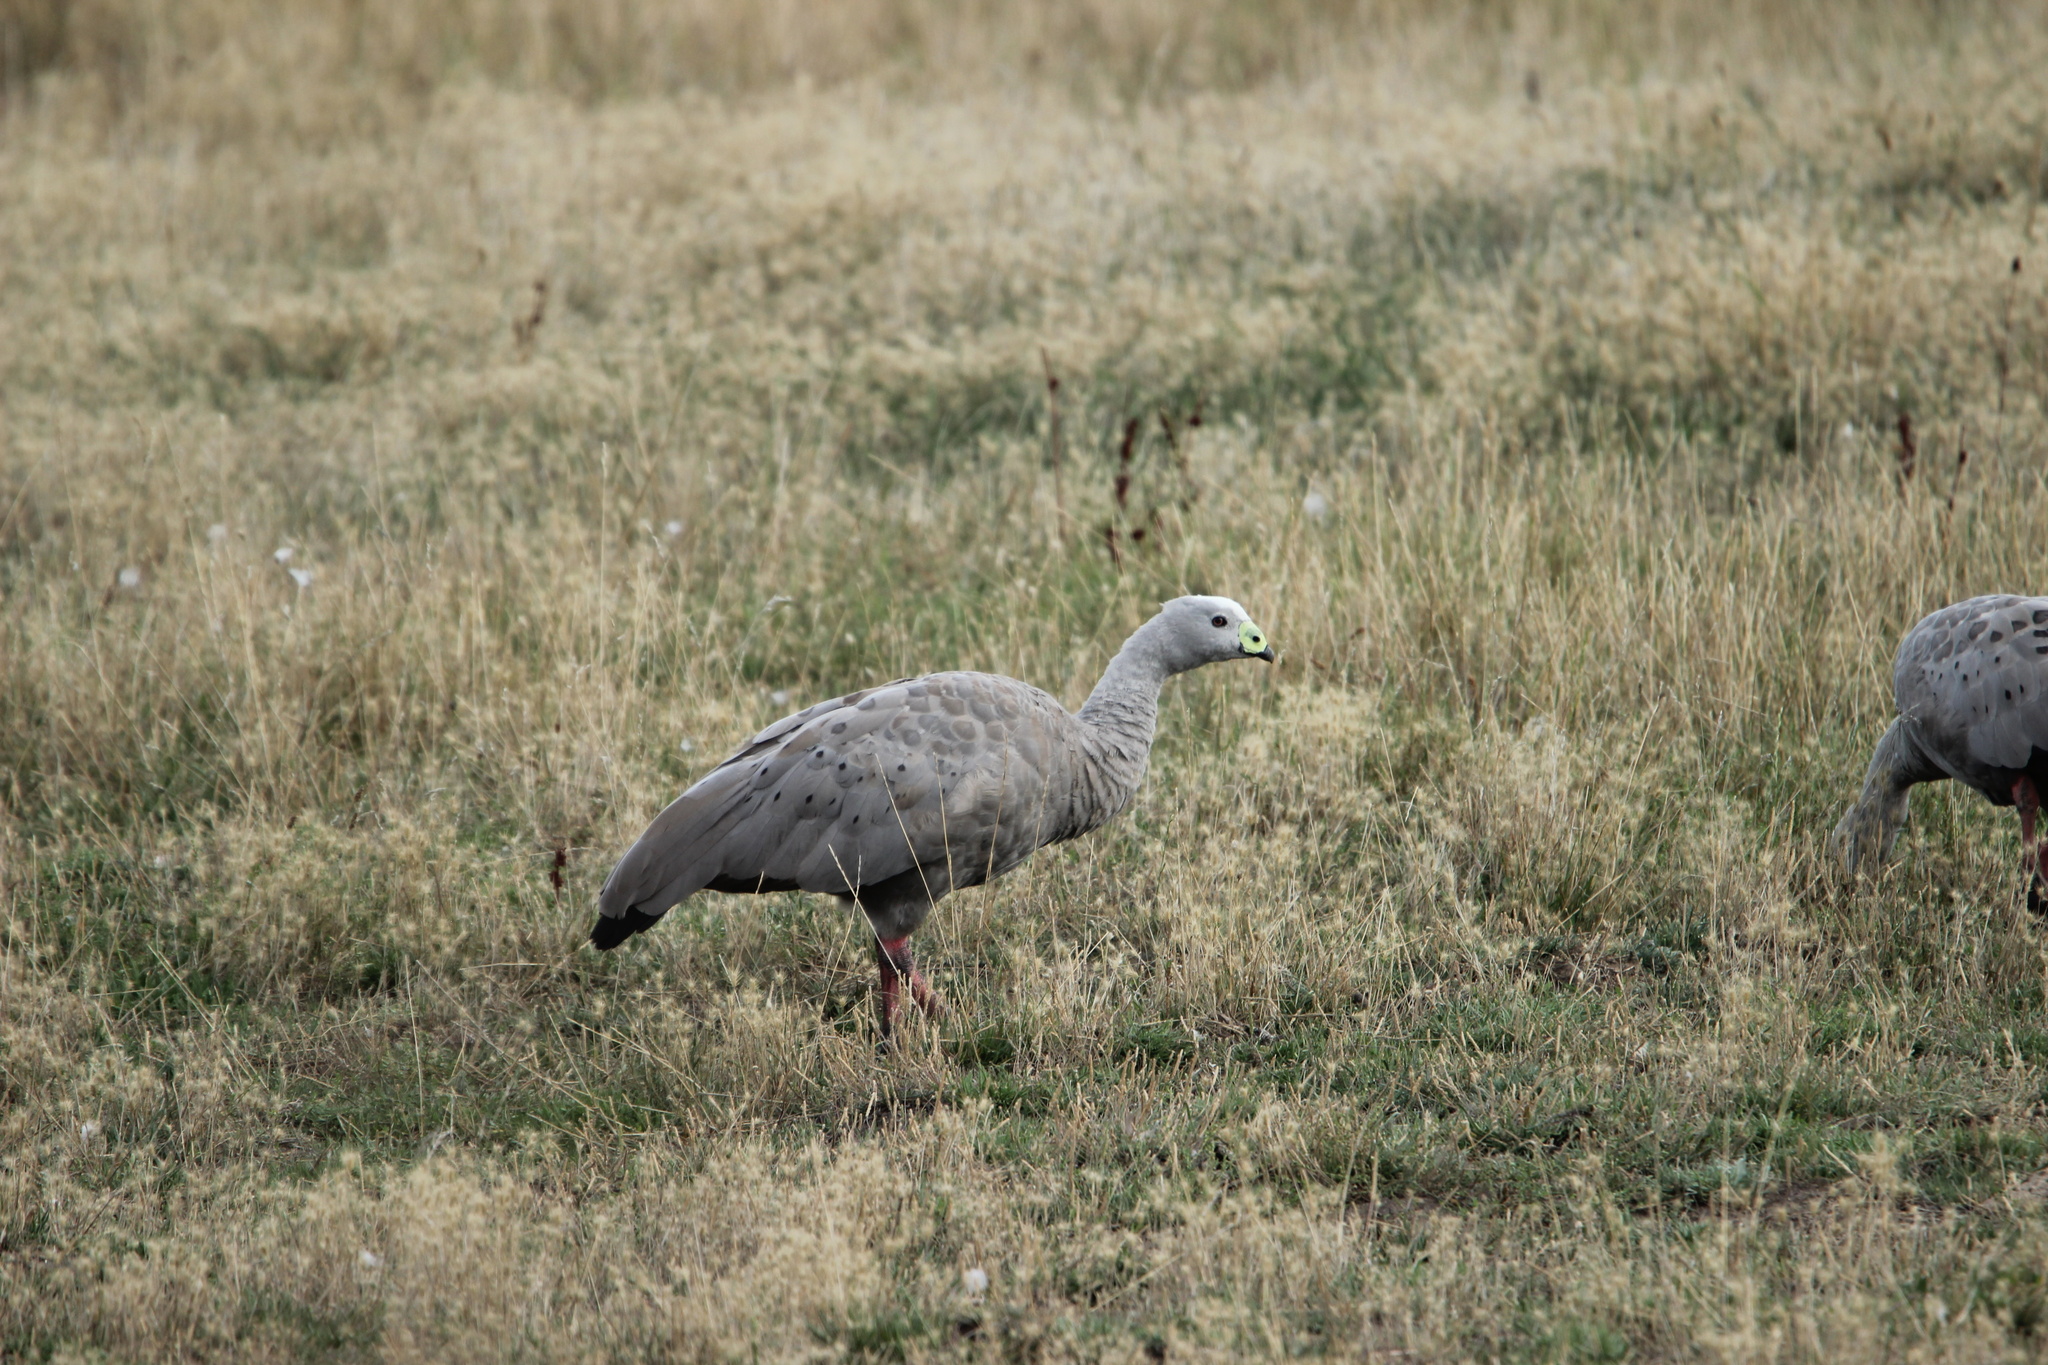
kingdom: Animalia
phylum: Chordata
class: Aves
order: Anseriformes
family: Anatidae
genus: Cereopsis
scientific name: Cereopsis novaehollandiae
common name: Cape barren goose
